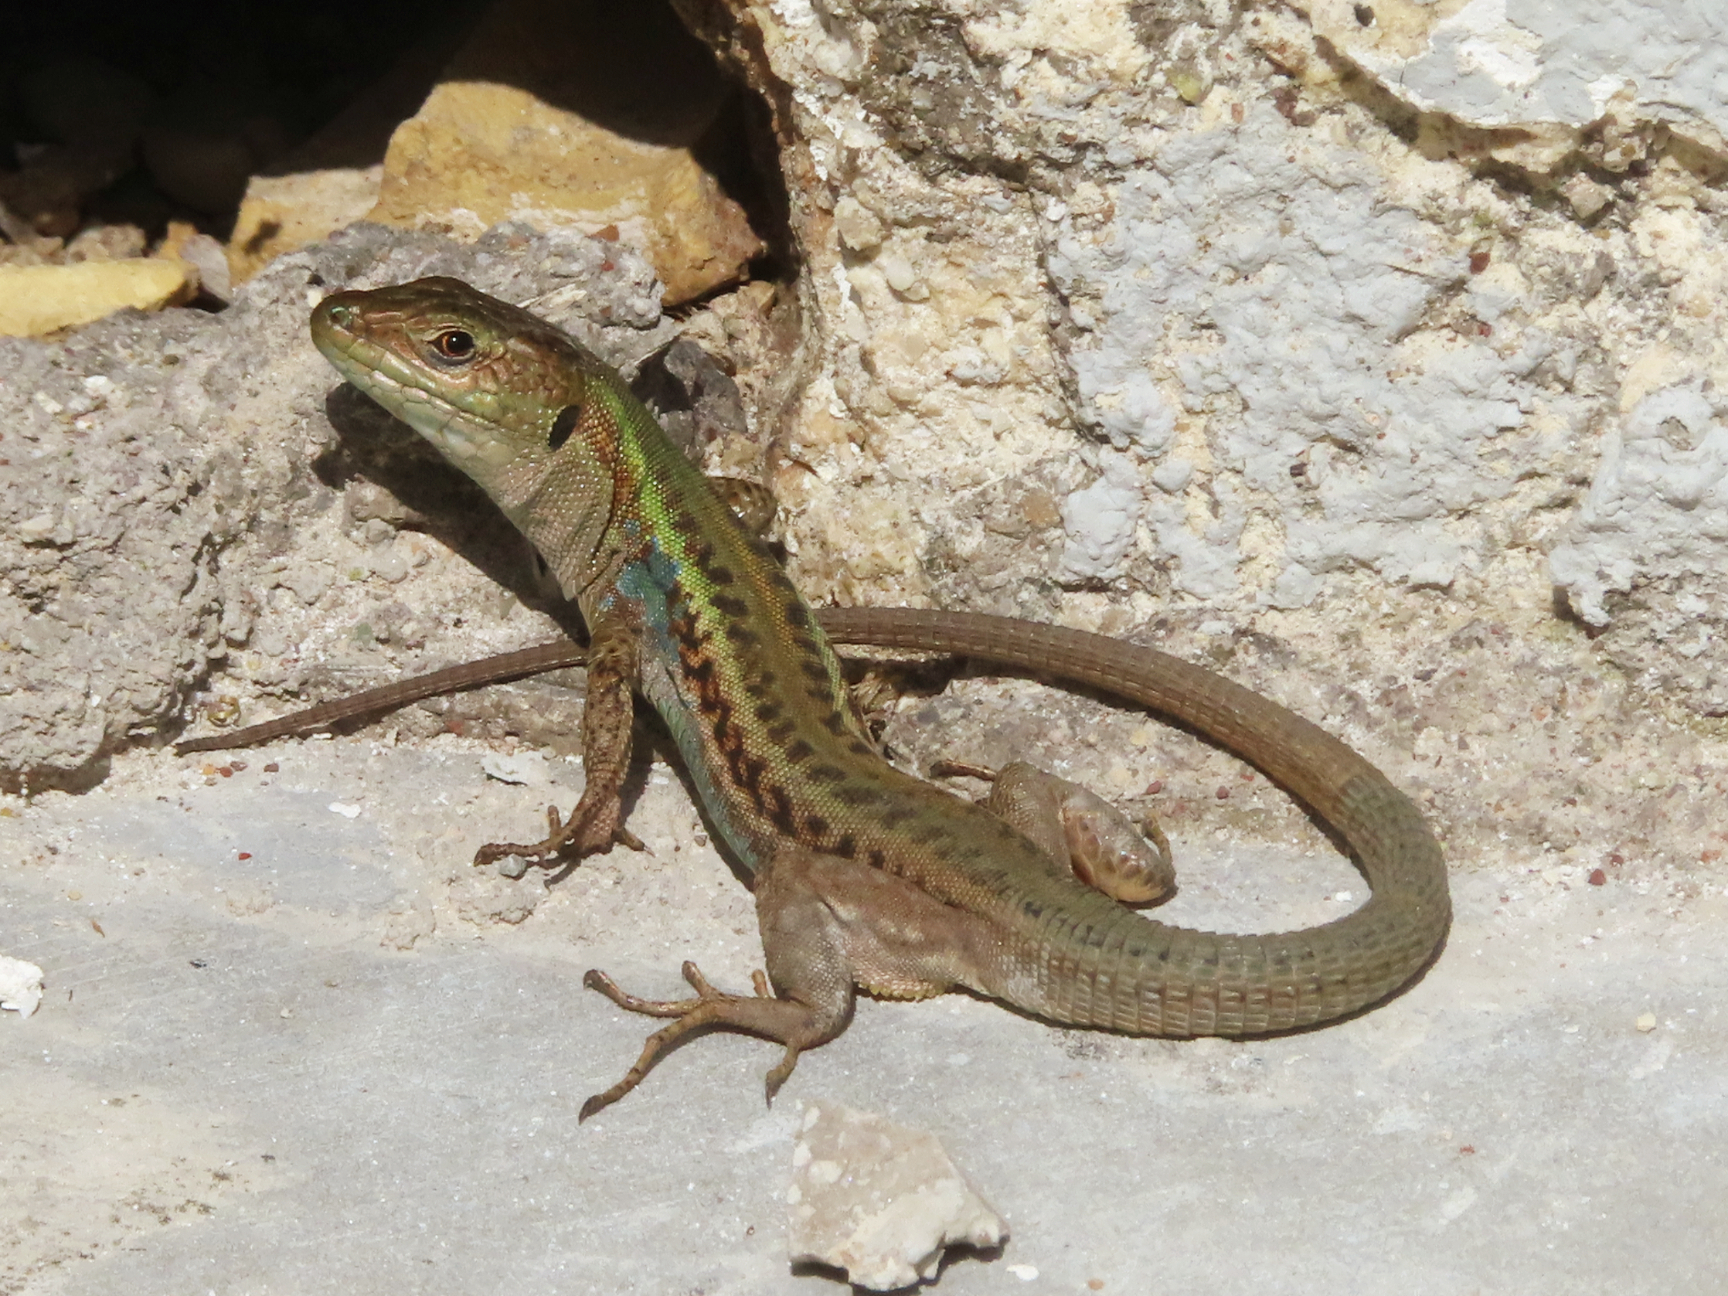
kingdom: Animalia
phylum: Chordata
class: Squamata
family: Lacertidae
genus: Podarcis
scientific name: Podarcis peloponnesiacus
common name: Peloponnese wall lizard
